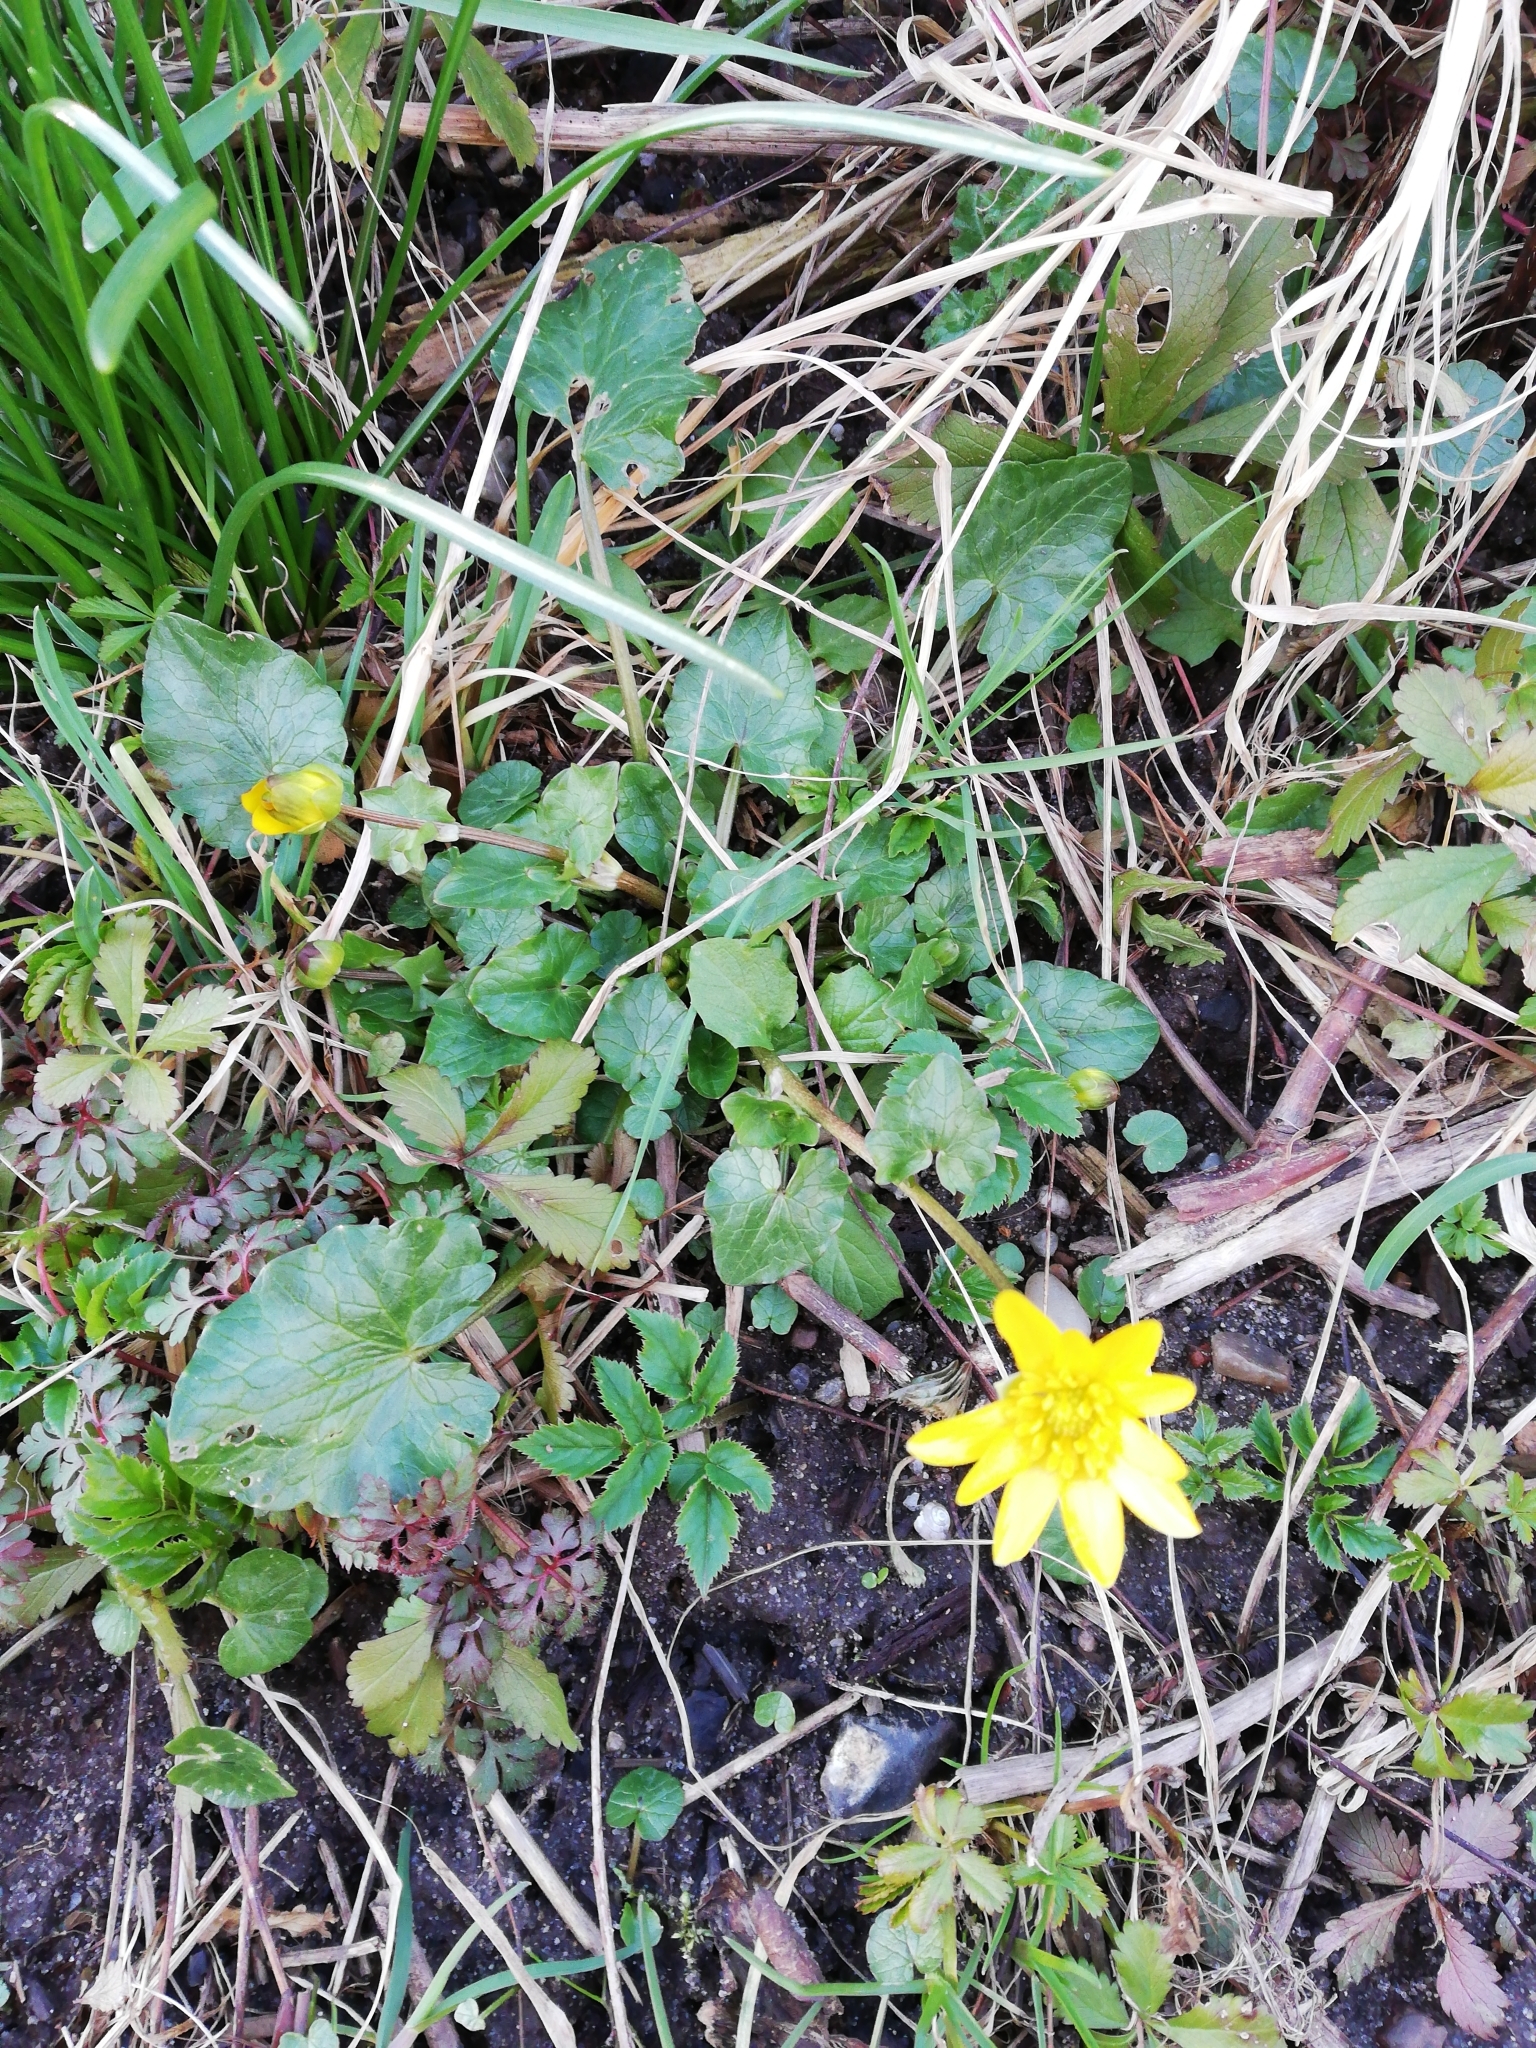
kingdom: Plantae
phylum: Tracheophyta
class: Magnoliopsida
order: Ranunculales
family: Ranunculaceae
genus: Ficaria
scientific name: Ficaria verna
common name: Lesser celandine
